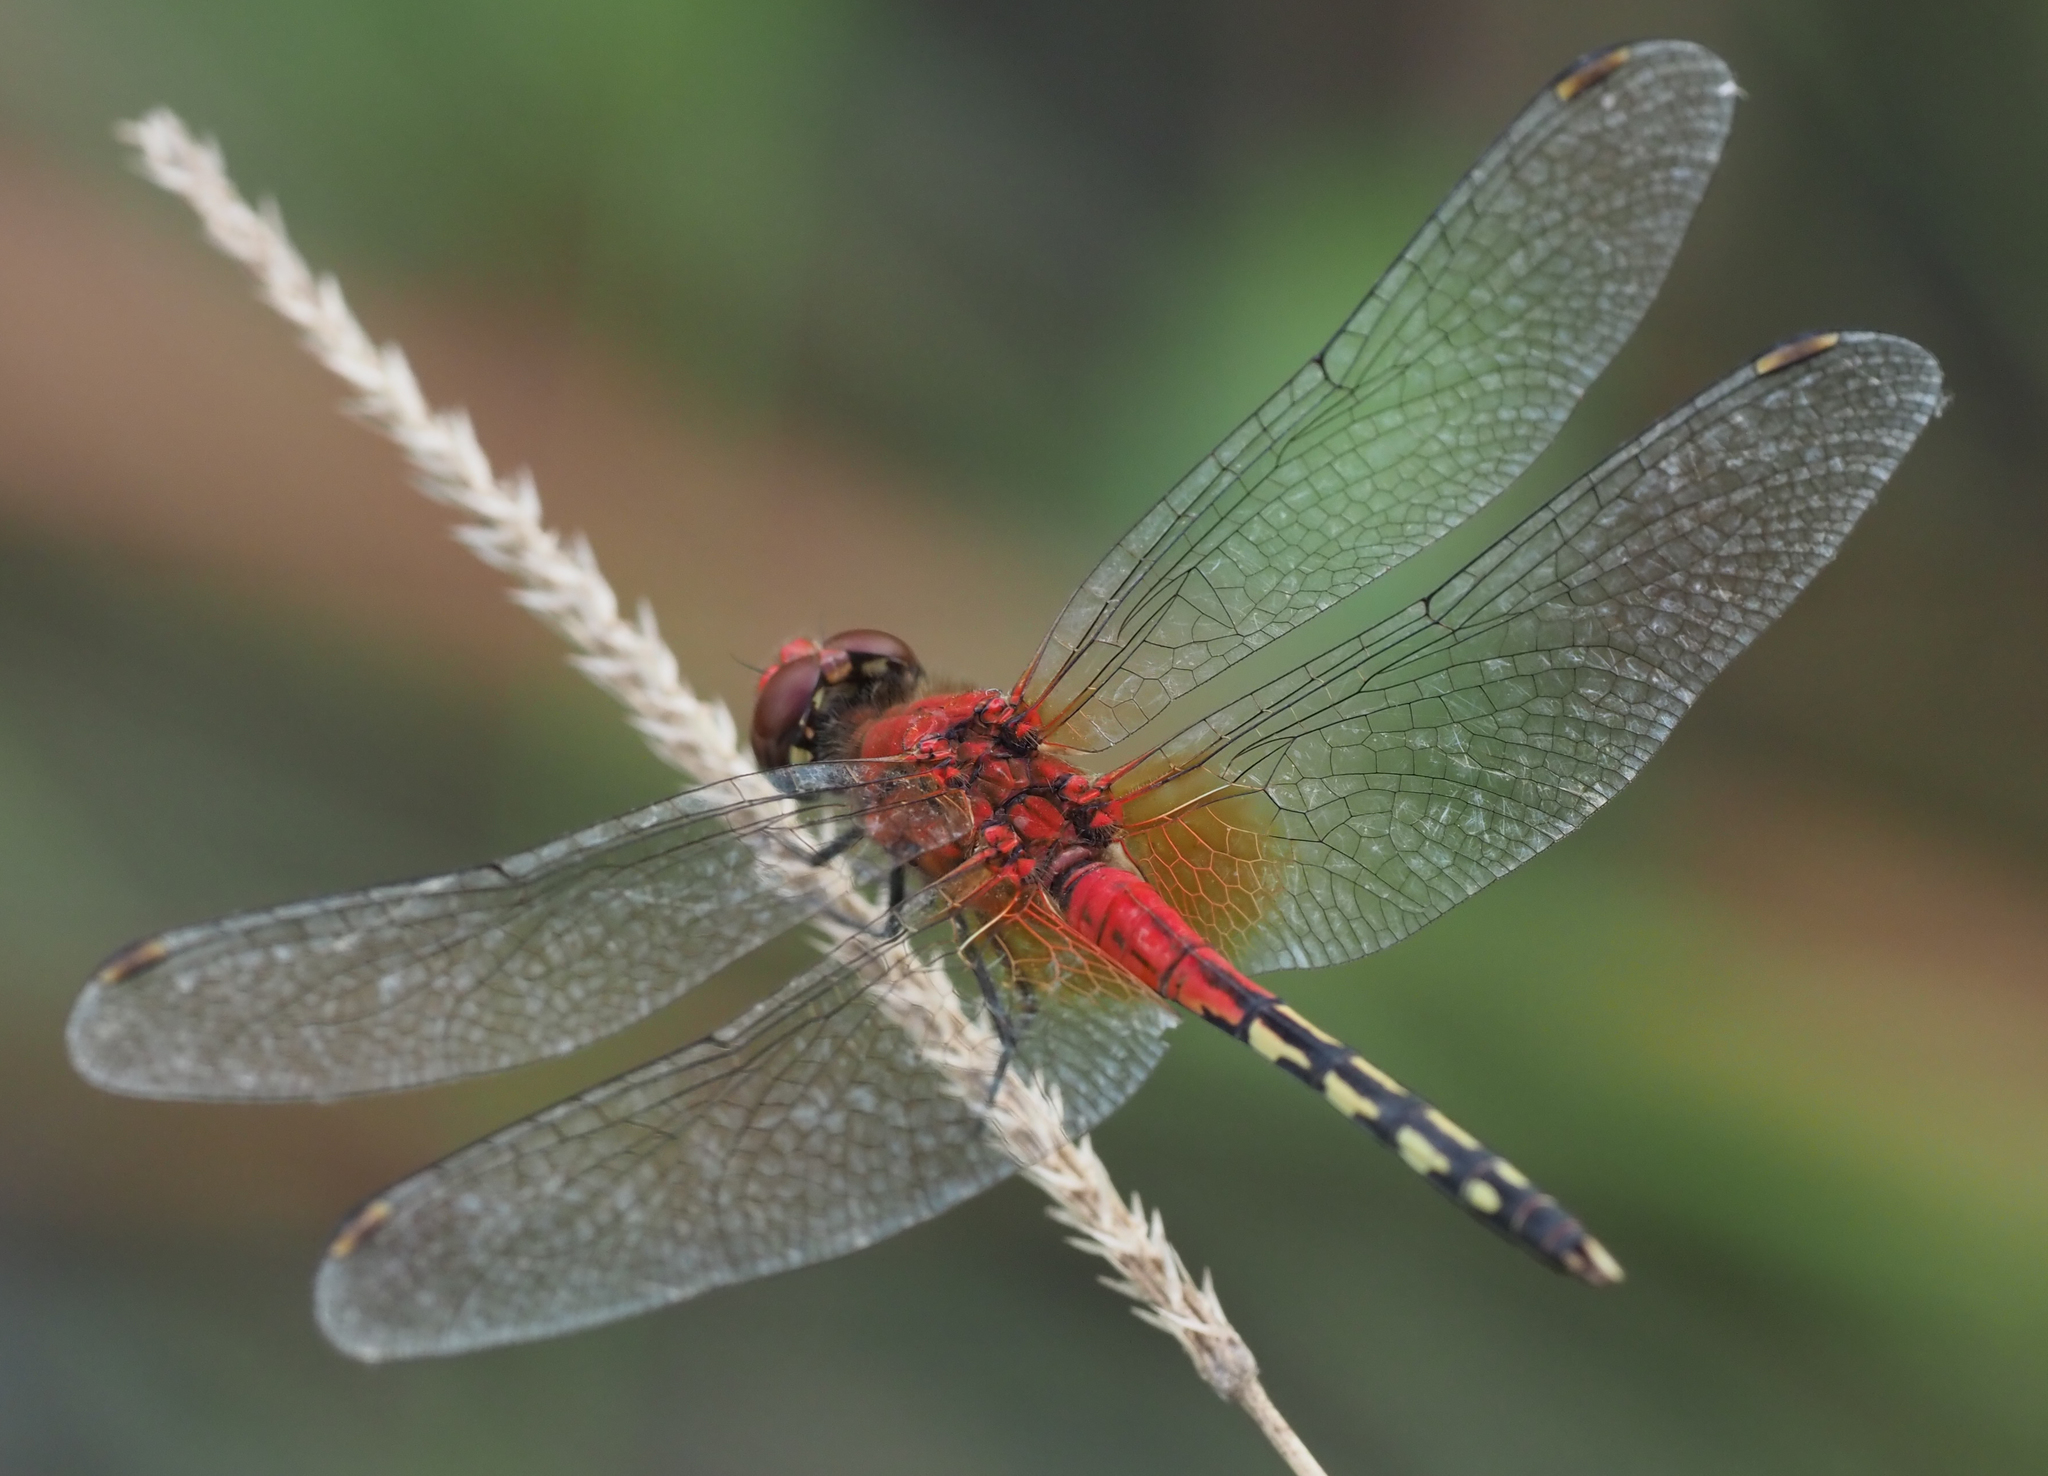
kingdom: Animalia
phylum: Arthropoda
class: Insecta
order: Odonata
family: Libellulidae
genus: Diplacodes
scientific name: Diplacodes luminans
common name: Barbet percher
